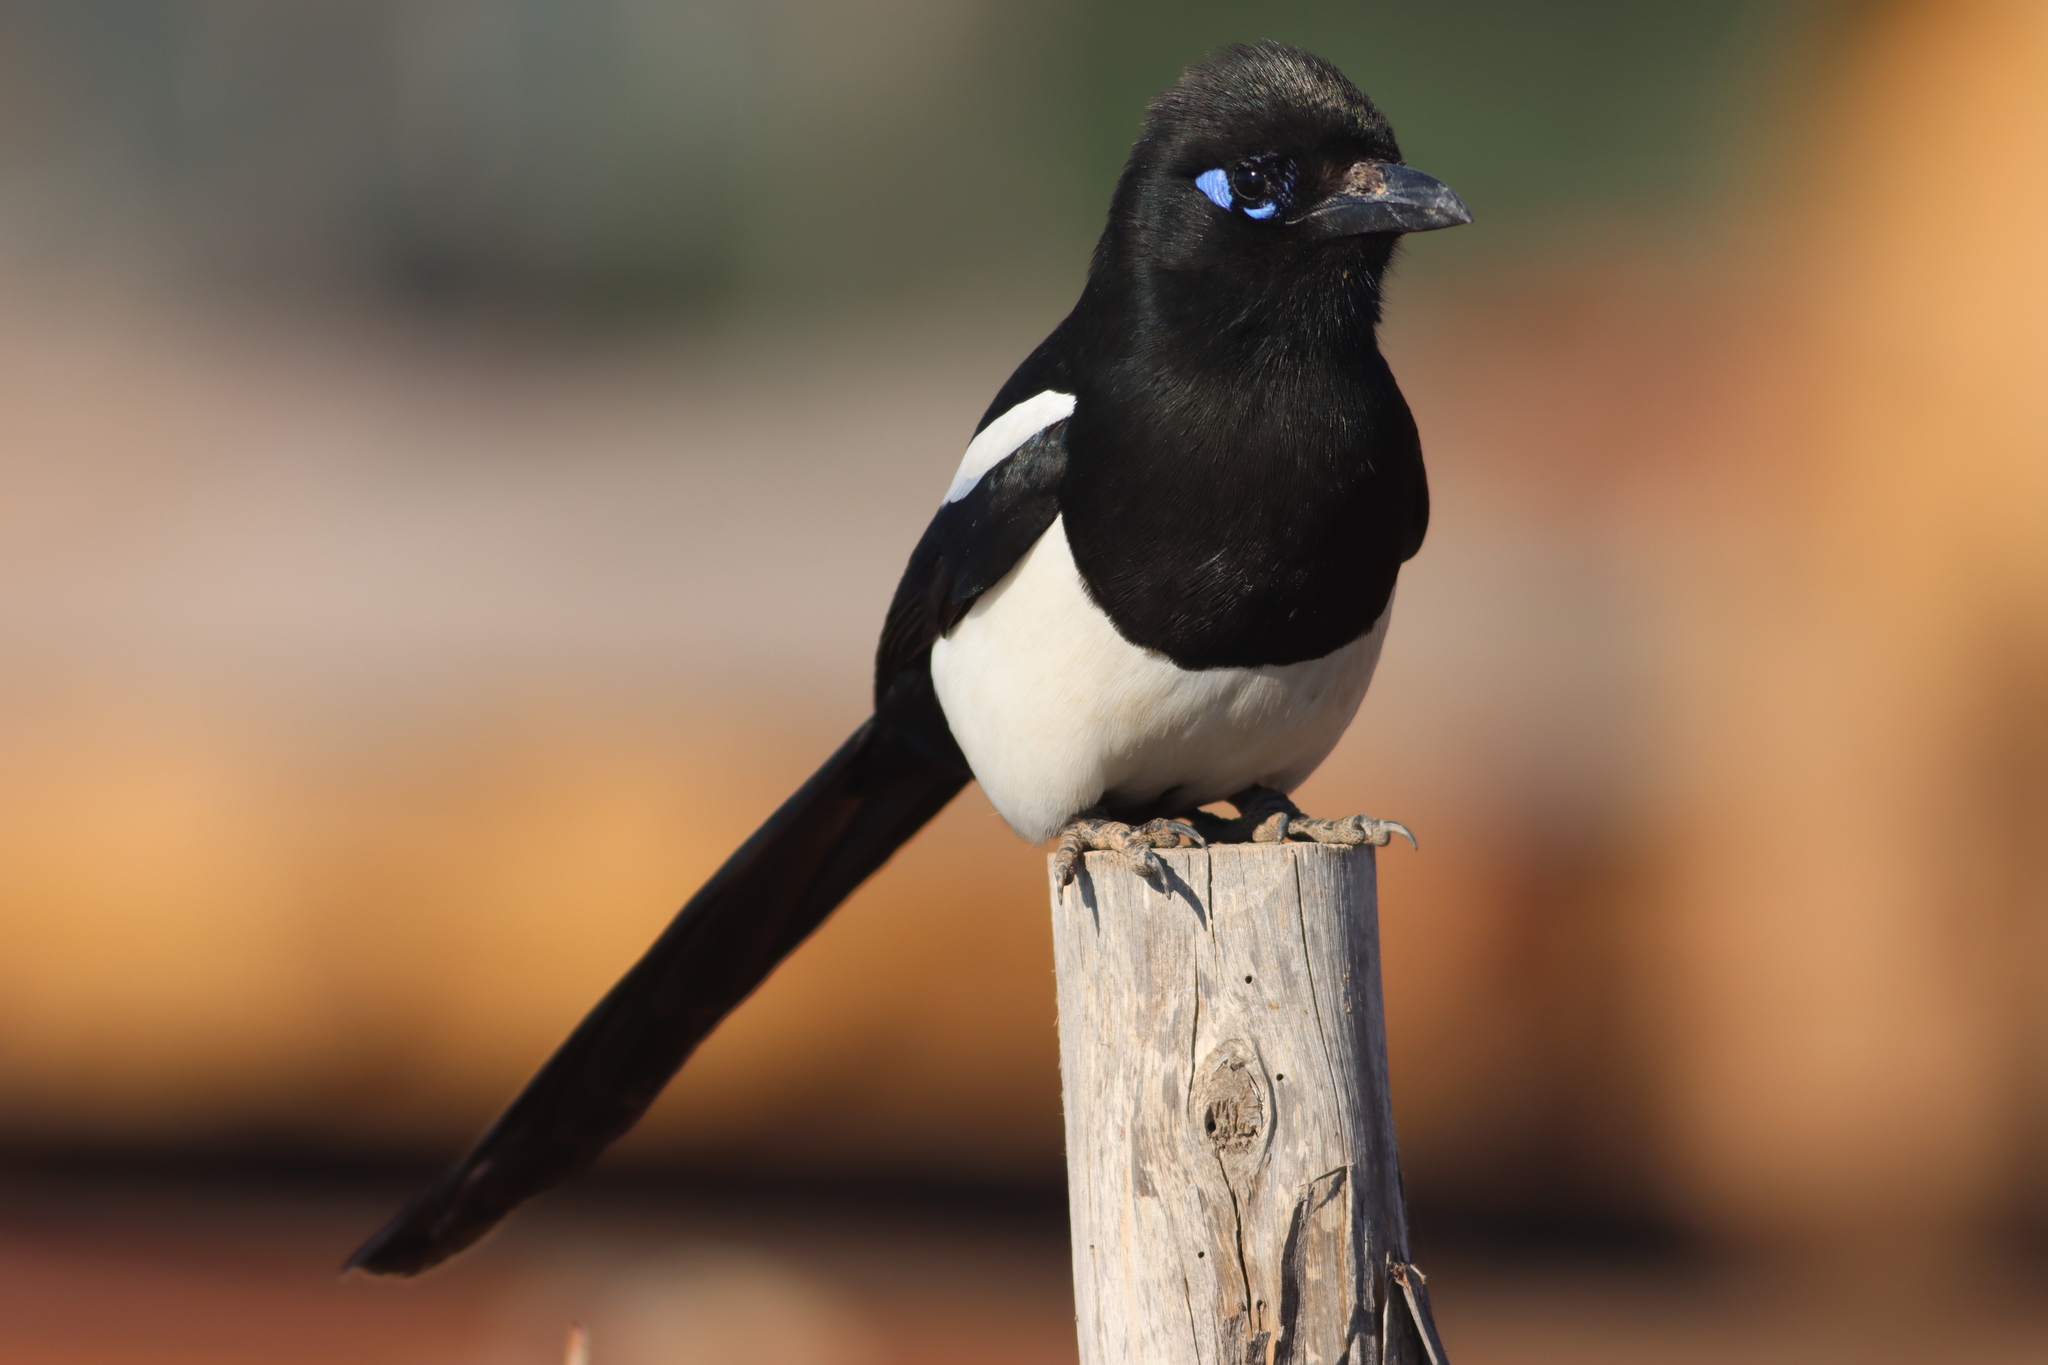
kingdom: Animalia
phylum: Chordata
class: Aves
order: Passeriformes
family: Corvidae
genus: Pica
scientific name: Pica mauritanica
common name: Maghreb magpie
